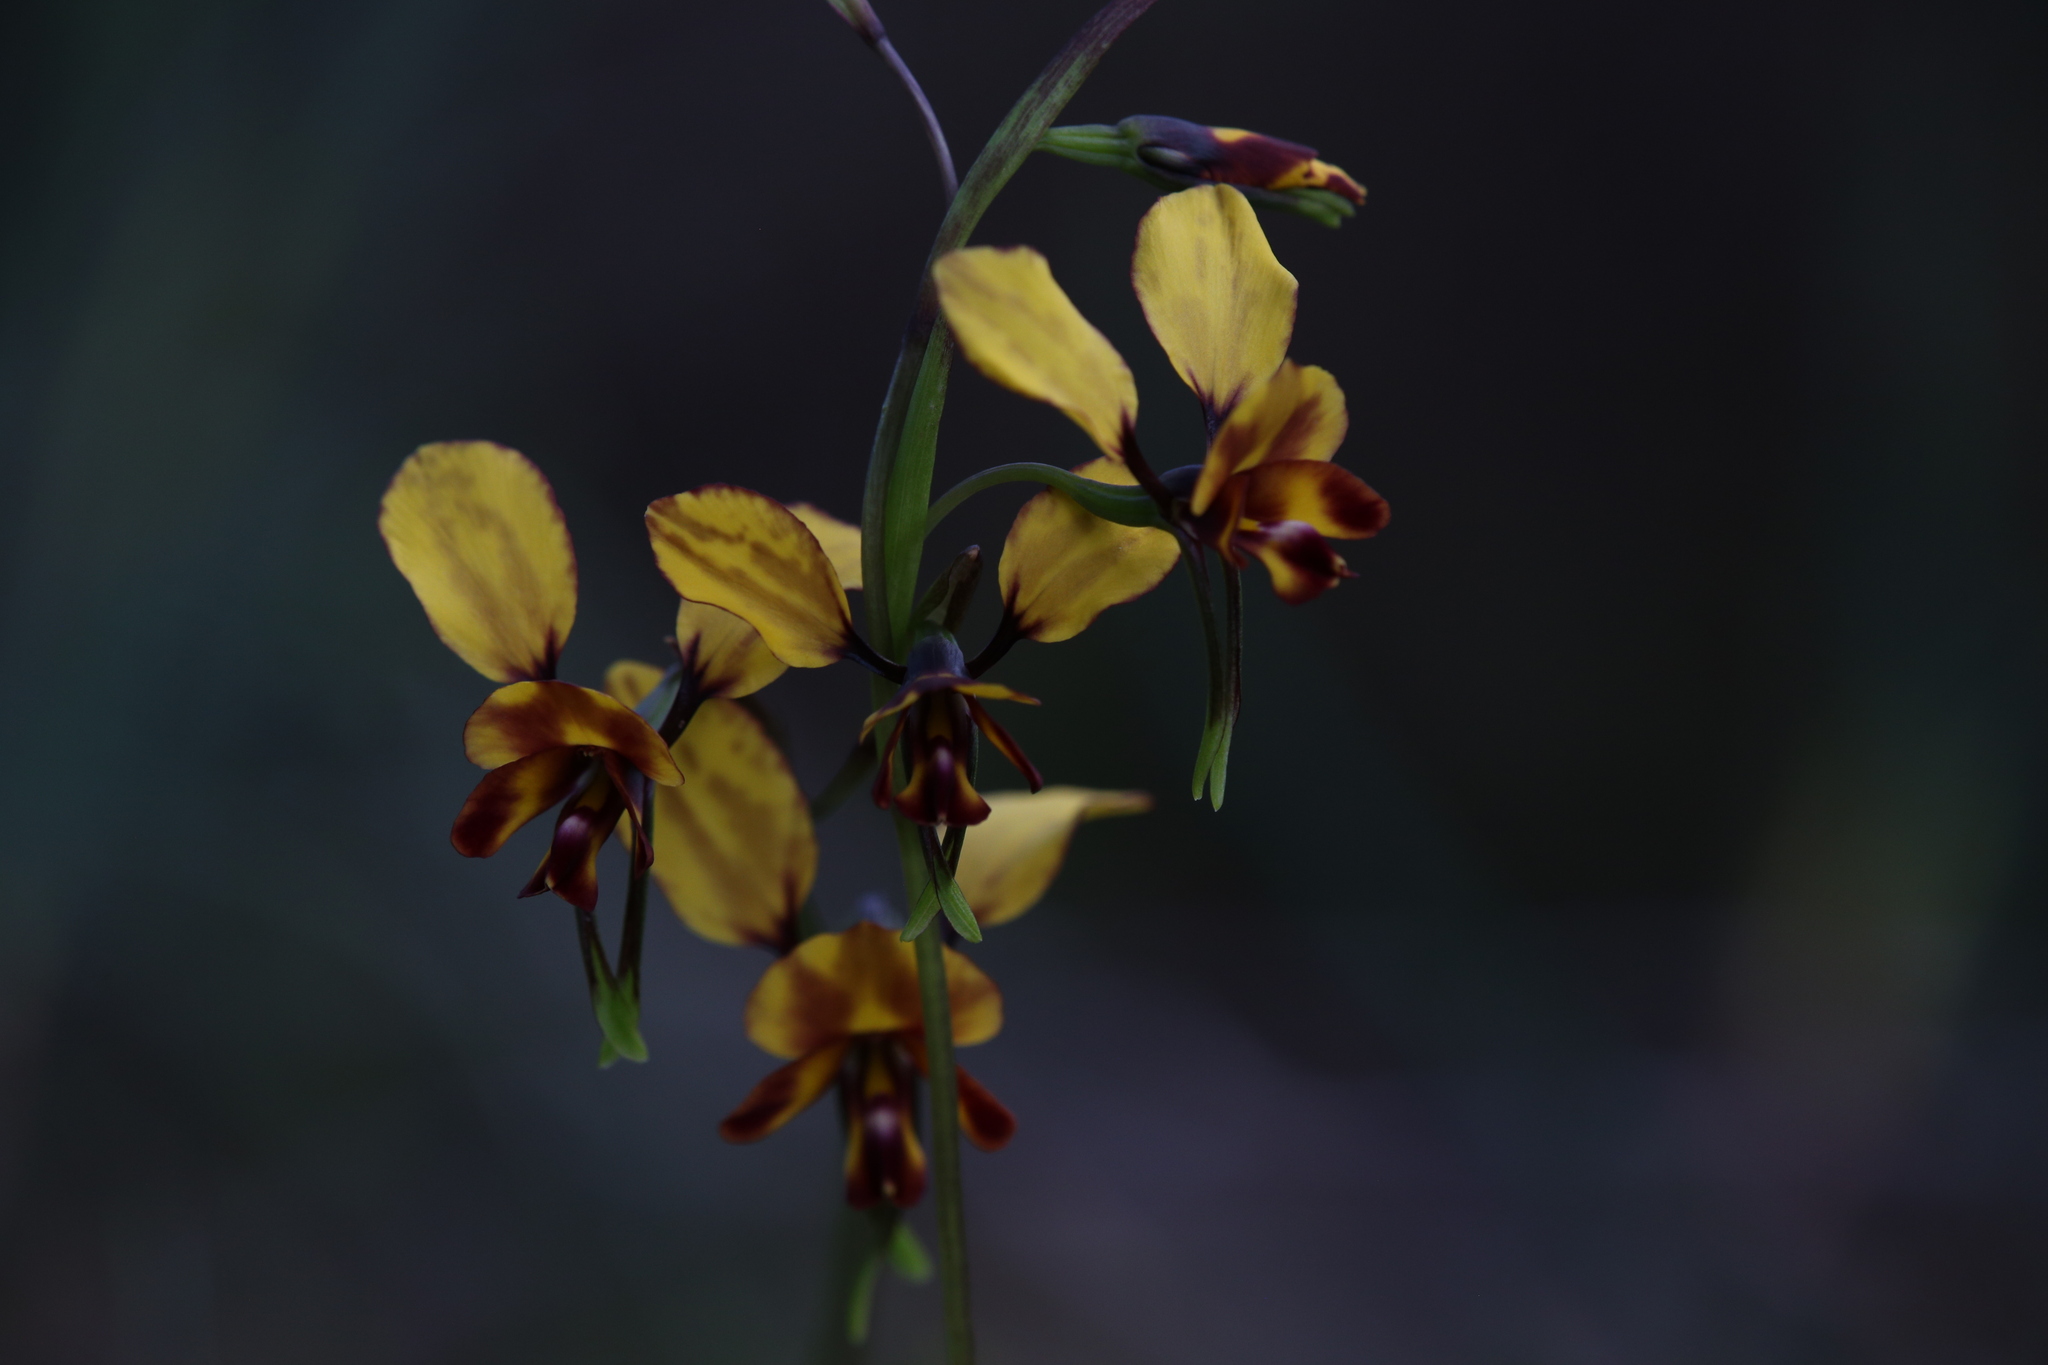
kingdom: Plantae
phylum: Tracheophyta
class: Liliopsida
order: Asparagales
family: Orchidaceae
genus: Diuris
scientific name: Diuris corymbosa
